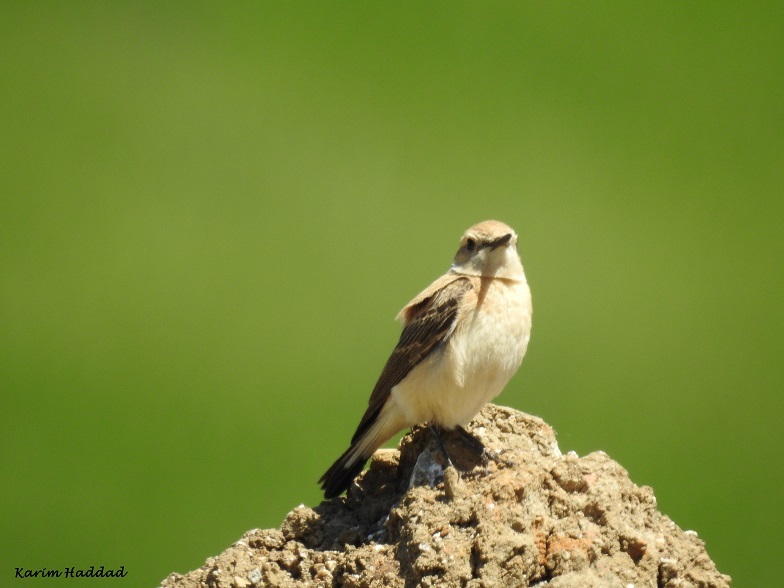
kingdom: Animalia
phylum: Chordata
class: Aves
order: Passeriformes
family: Muscicapidae
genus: Oenanthe
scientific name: Oenanthe hispanica
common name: Black-eared wheatear
